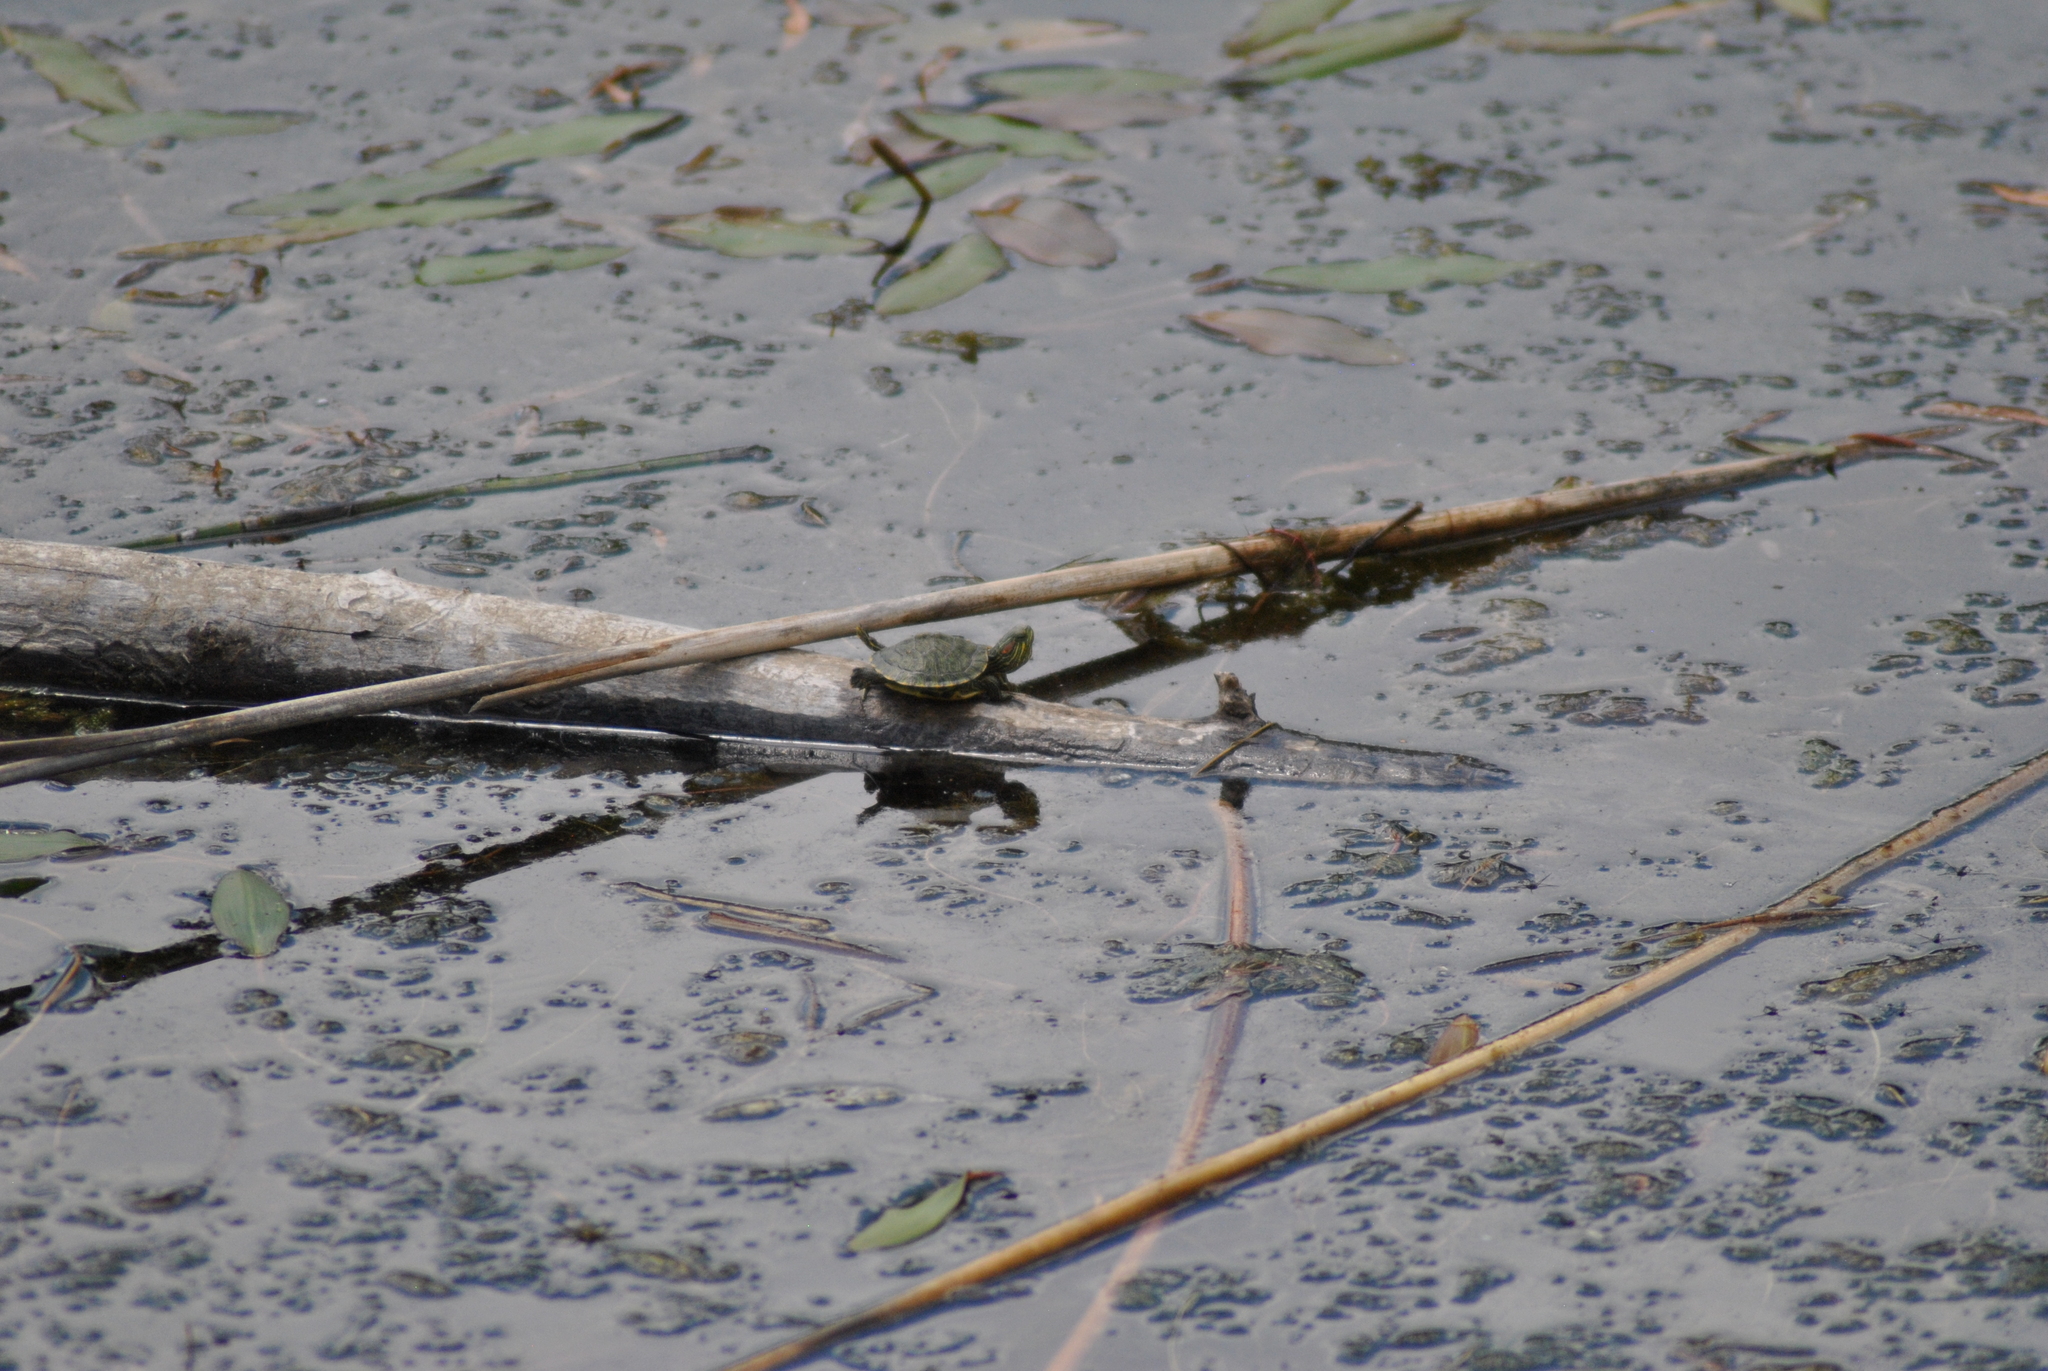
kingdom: Animalia
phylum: Chordata
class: Testudines
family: Emydidae
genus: Trachemys
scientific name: Trachemys scripta
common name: Slider
